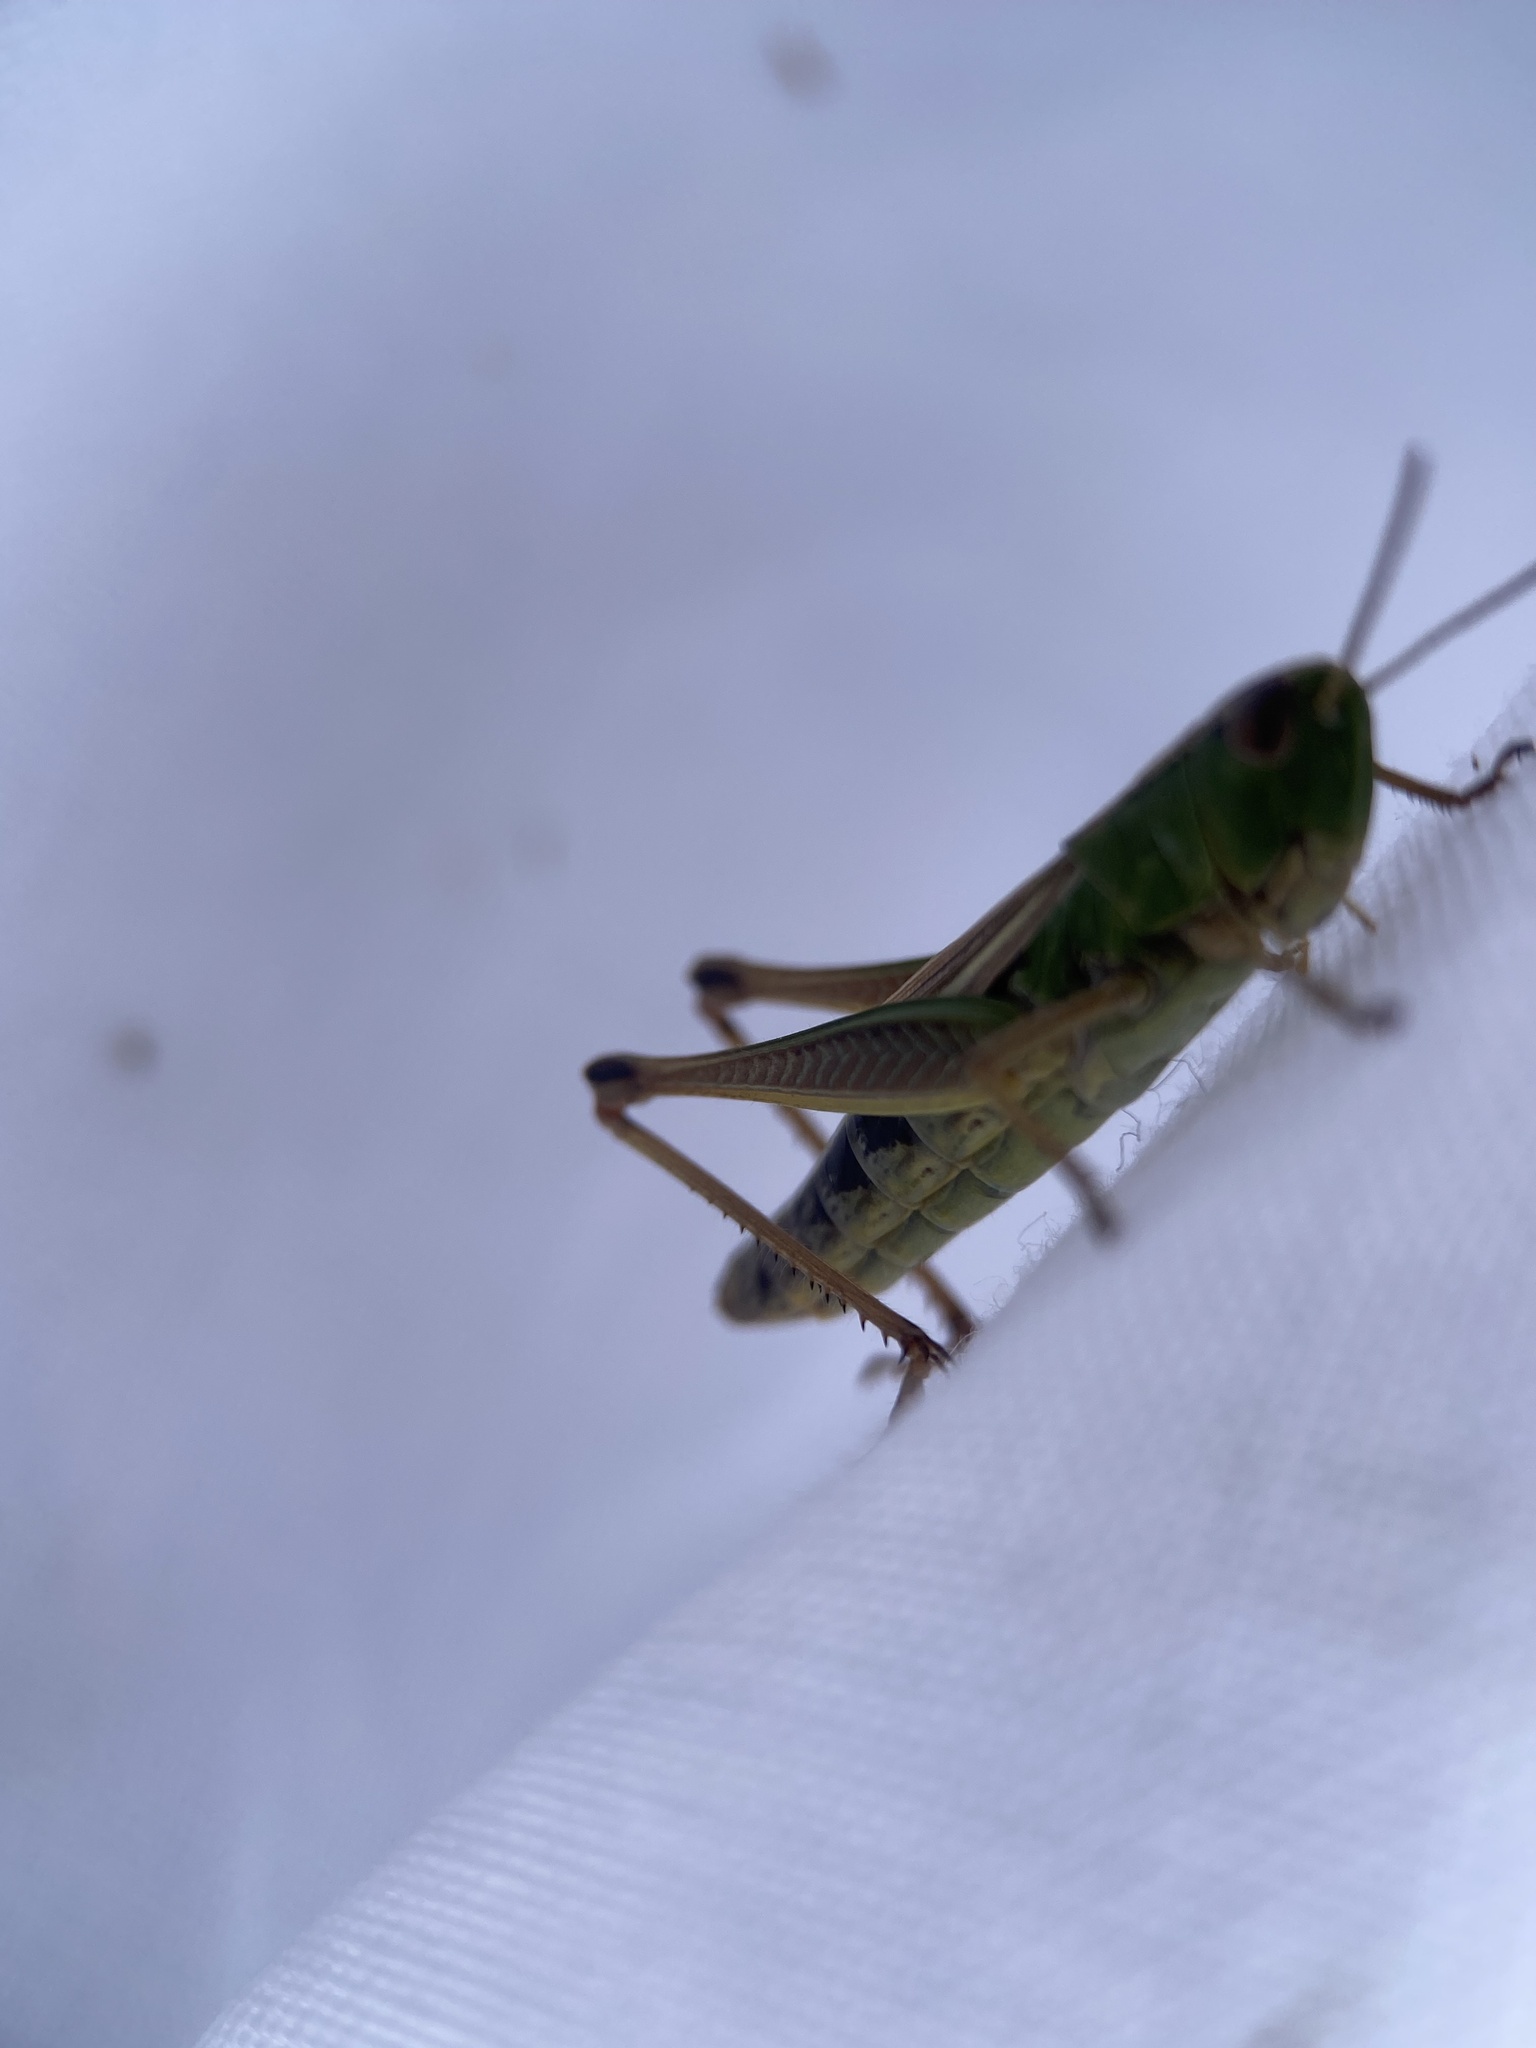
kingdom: Animalia
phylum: Arthropoda
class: Insecta
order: Orthoptera
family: Acrididae
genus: Pseudochorthippus
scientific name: Pseudochorthippus parallelus
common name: Meadow grasshopper
